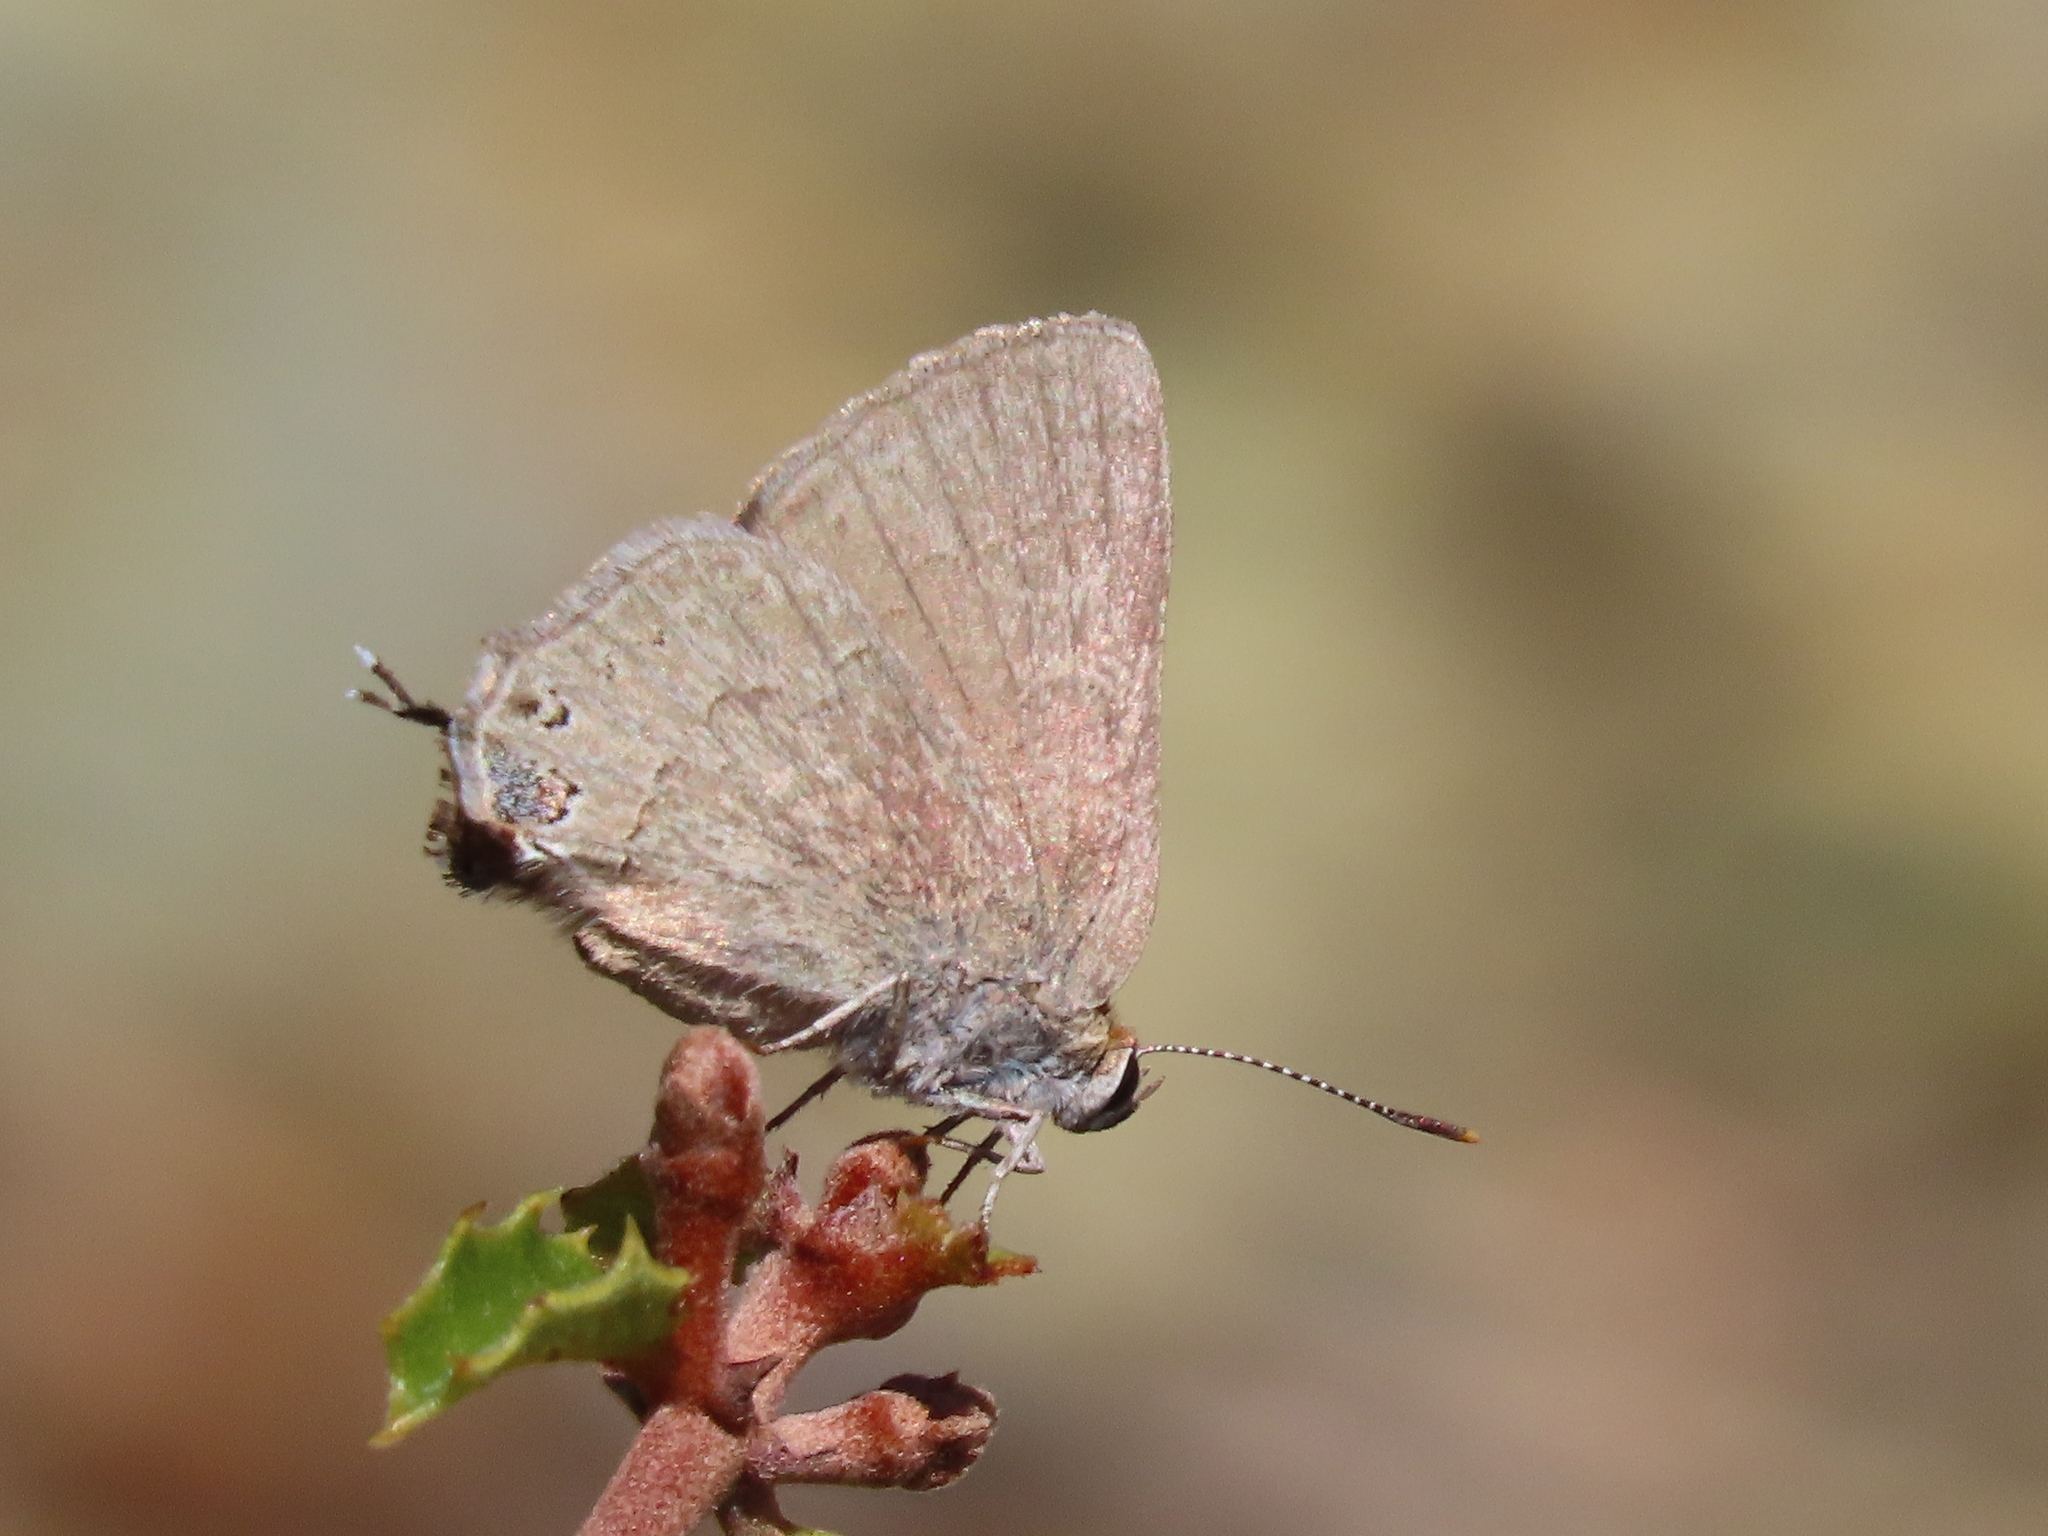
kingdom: Animalia
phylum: Arthropoda
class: Insecta
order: Lepidoptera
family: Lycaenidae
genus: Strymon
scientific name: Strymon saepium
